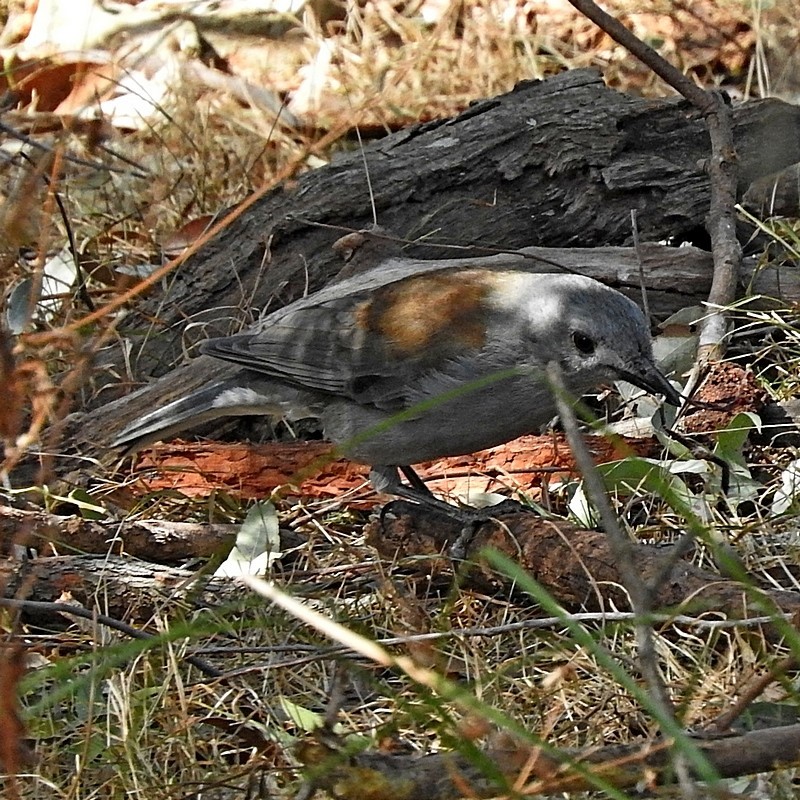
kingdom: Animalia
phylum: Chordata
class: Aves
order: Passeriformes
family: Pachycephalidae
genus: Colluricincla
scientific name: Colluricincla harmonica
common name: Grey shrikethrush
